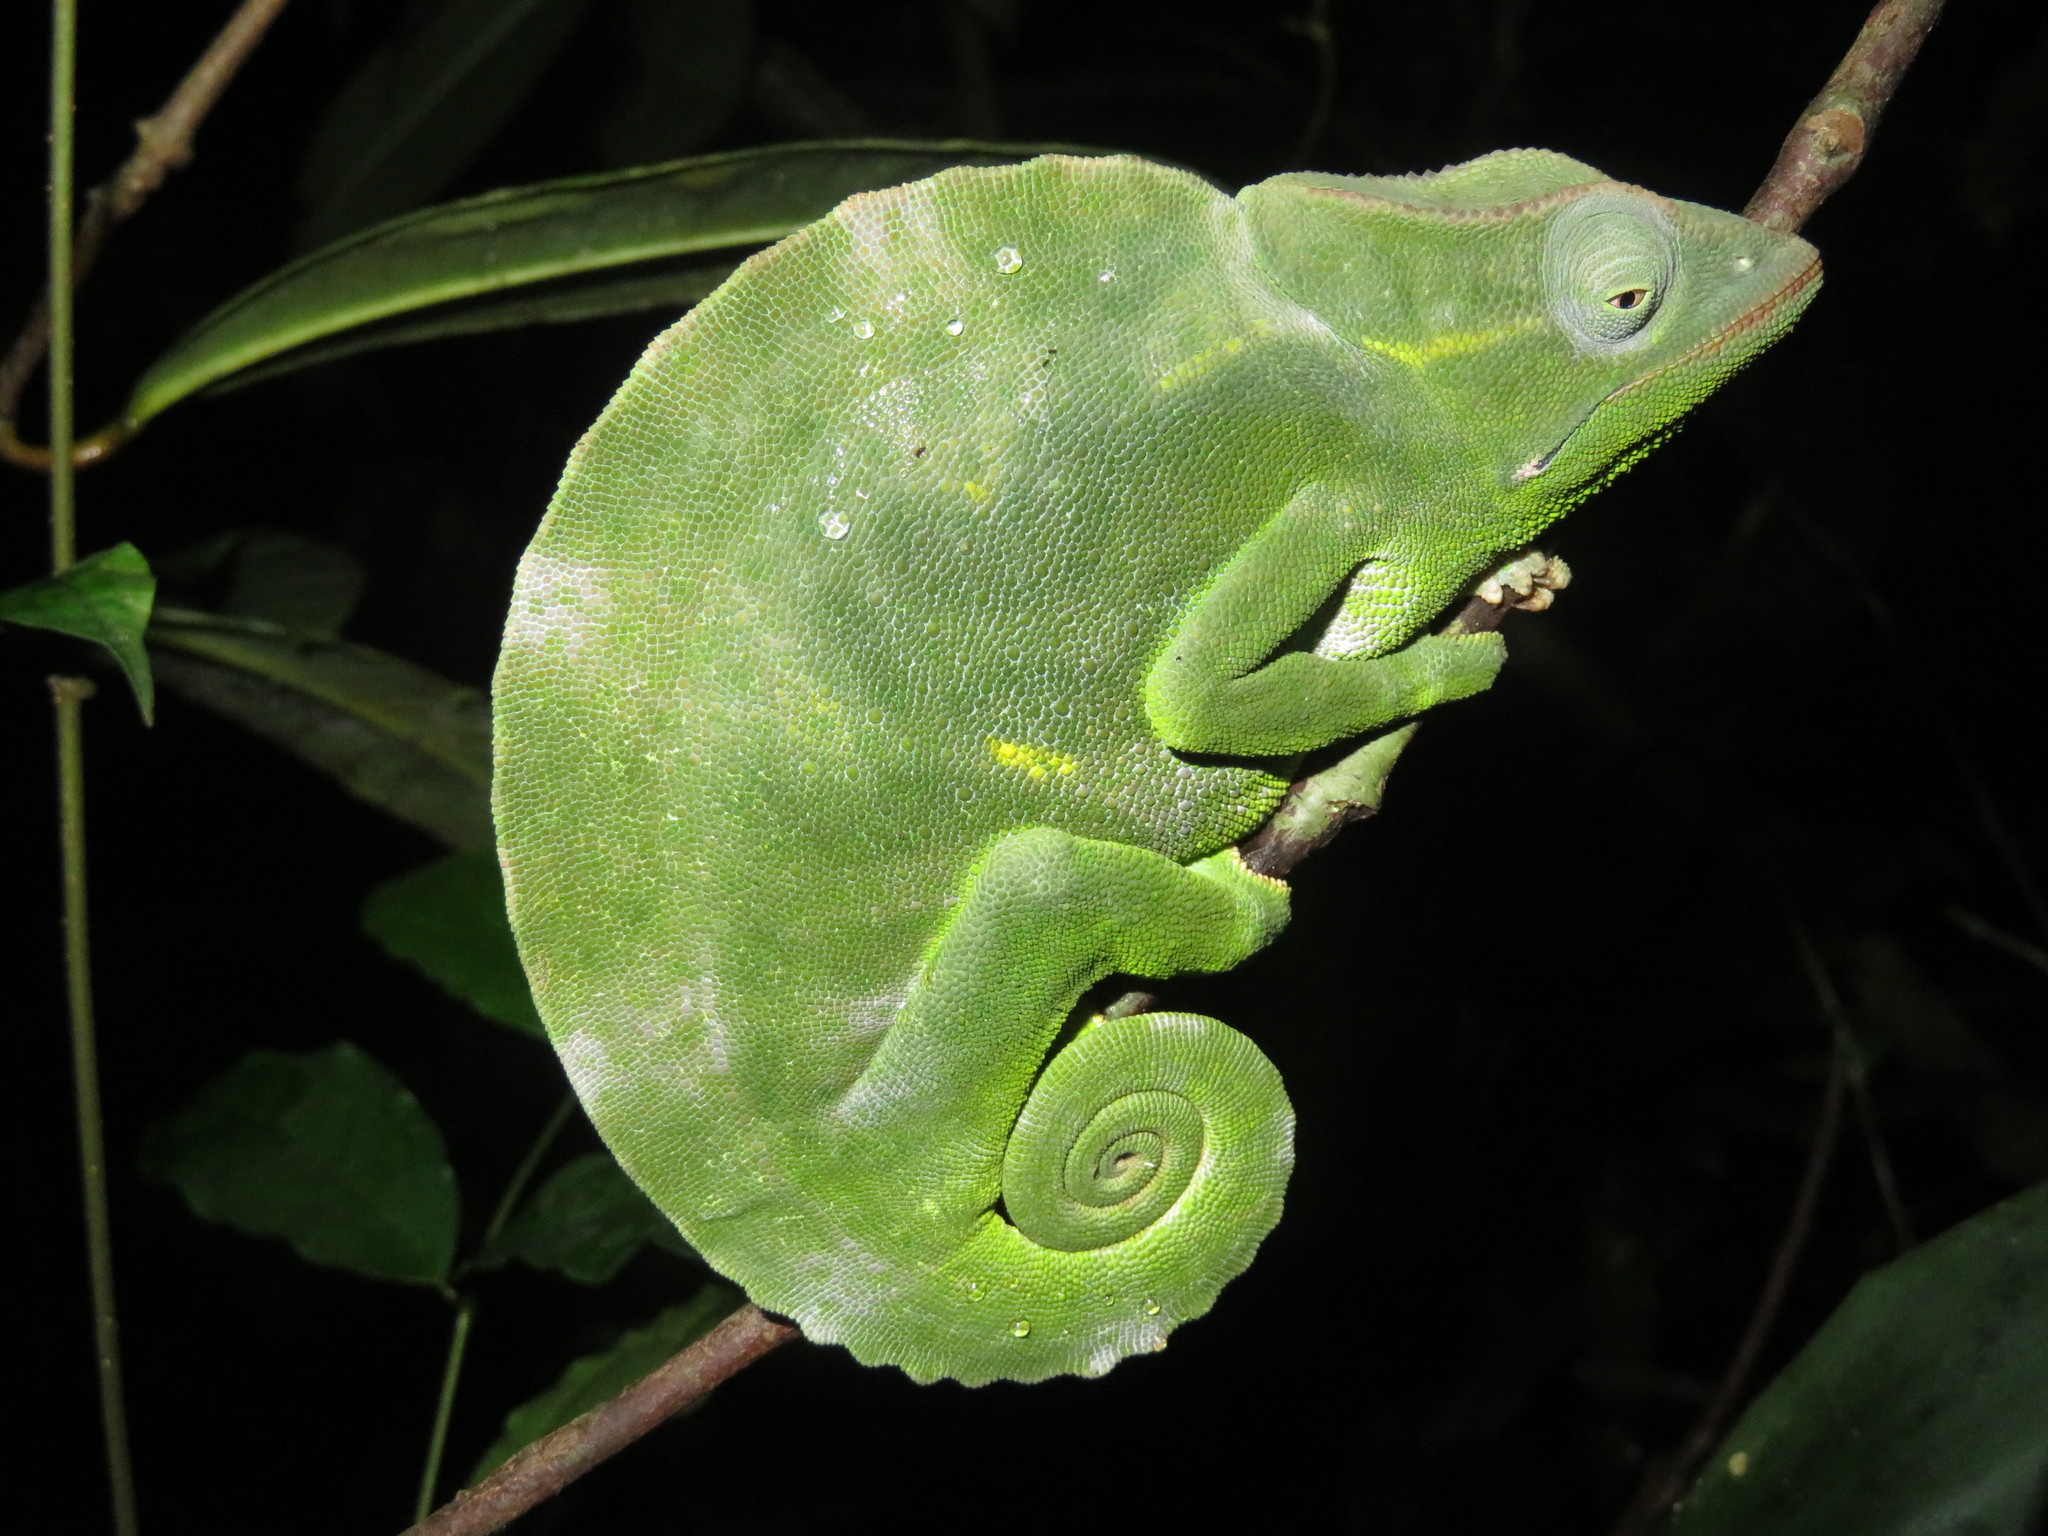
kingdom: Animalia
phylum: Chordata
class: Squamata
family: Chamaeleonidae
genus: Trioceros
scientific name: Trioceros deremensis
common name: Wavy chameleon
